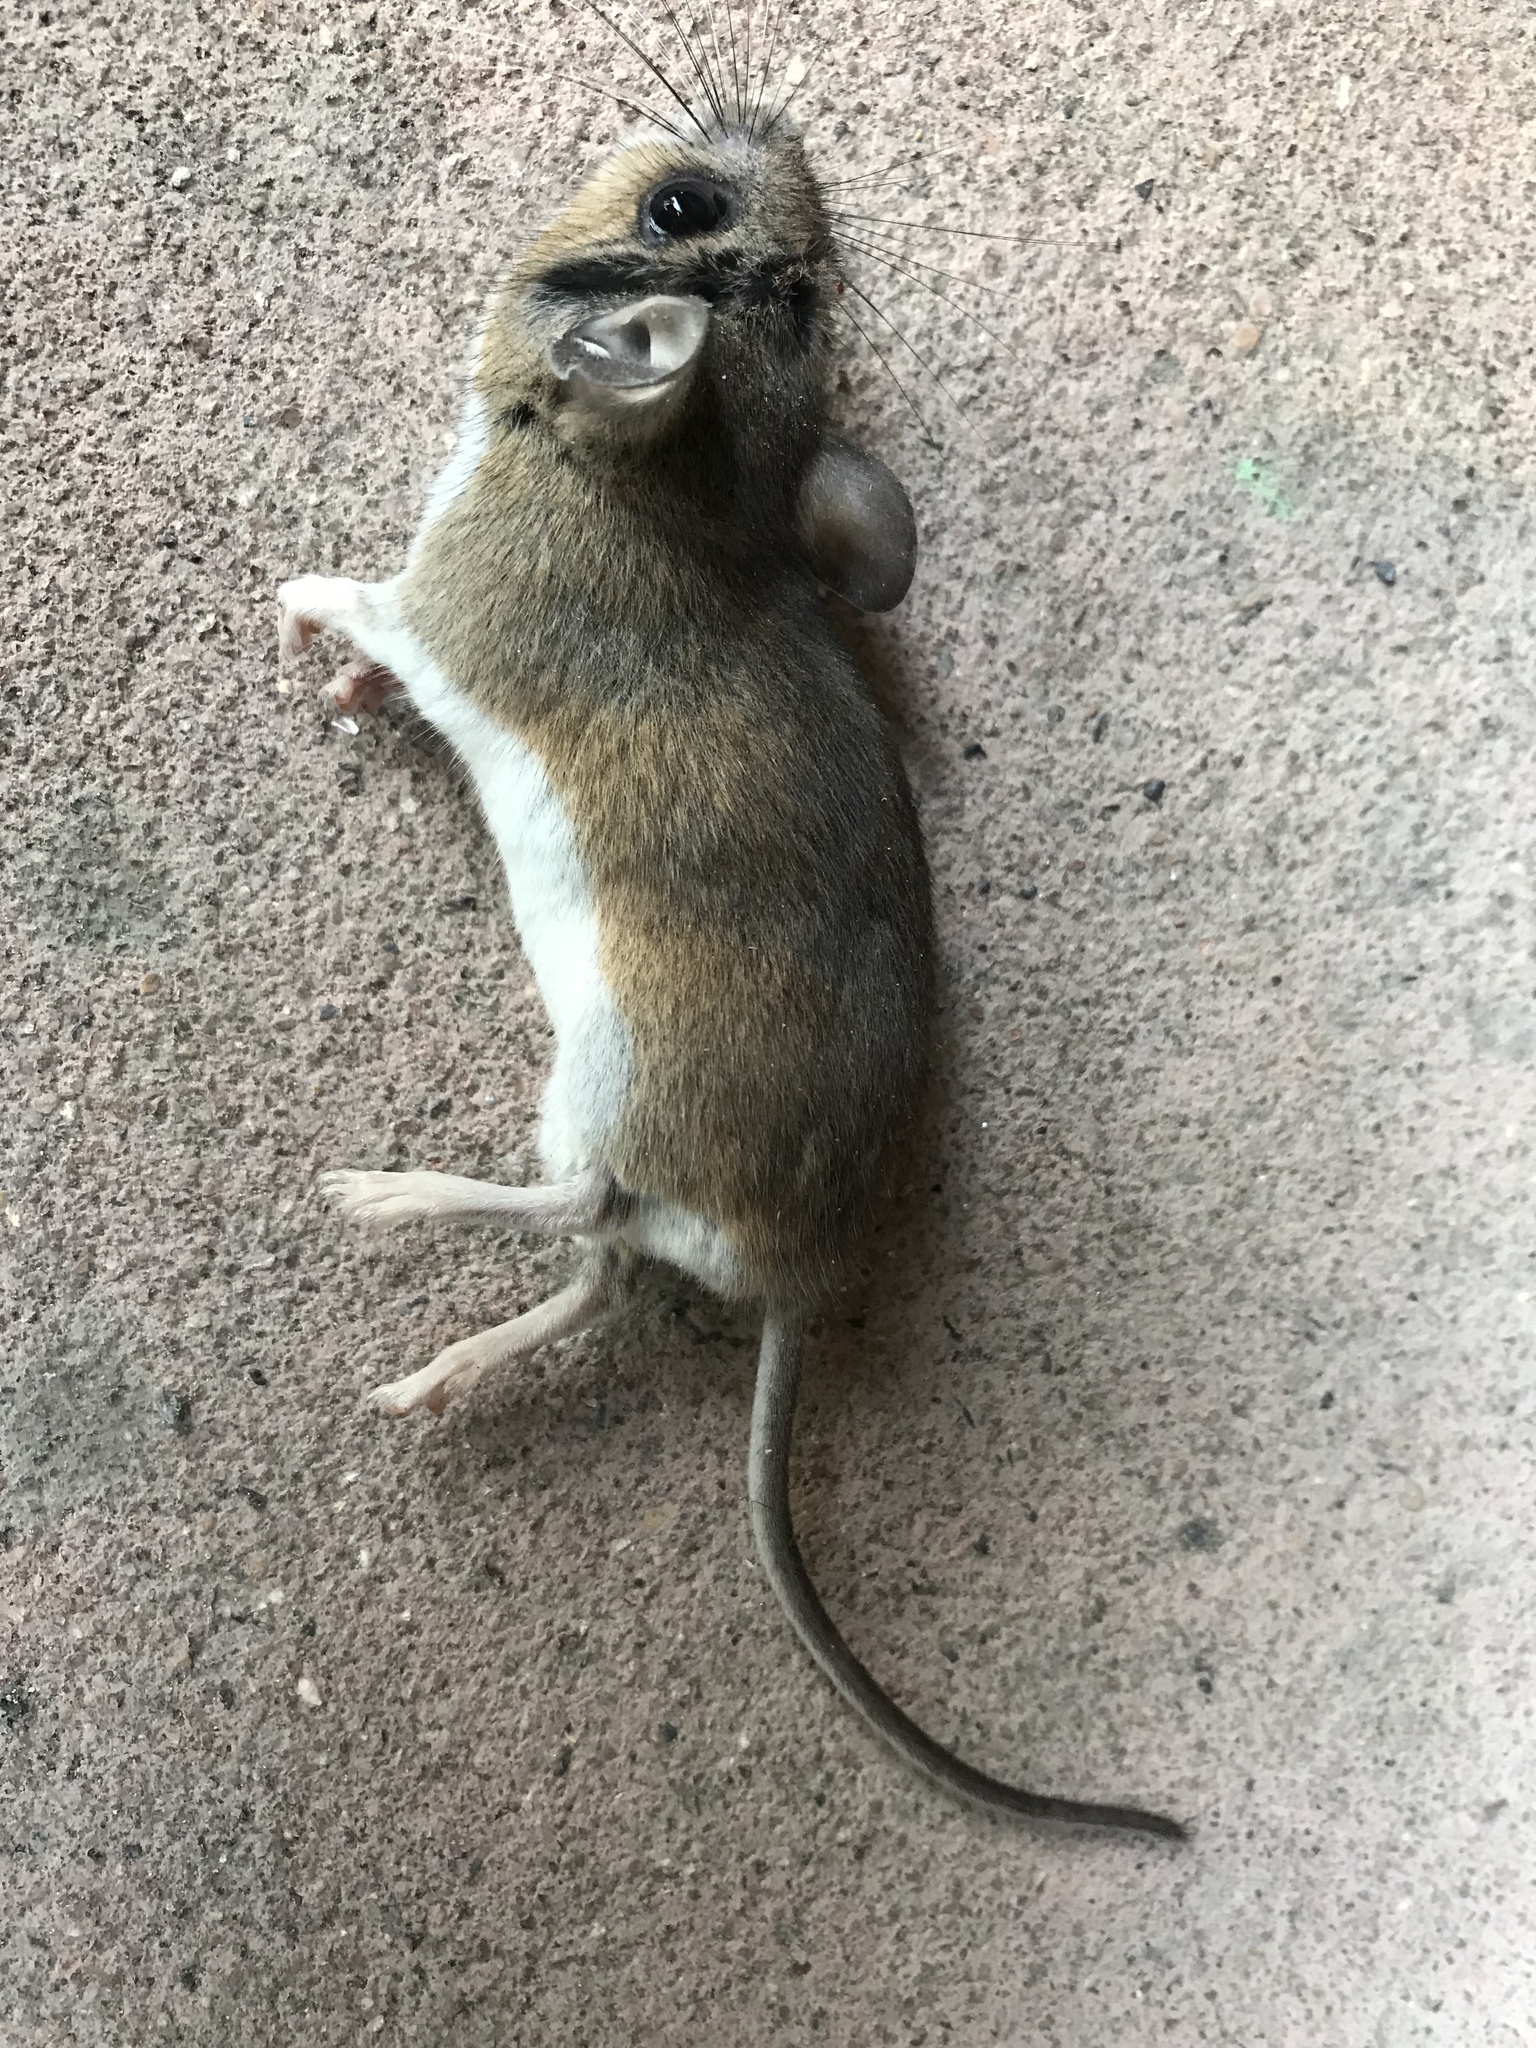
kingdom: Animalia
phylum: Chordata
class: Mammalia
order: Rodentia
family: Cricetidae
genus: Peromyscus
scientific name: Peromyscus leucopus
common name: White-footed deermouse
